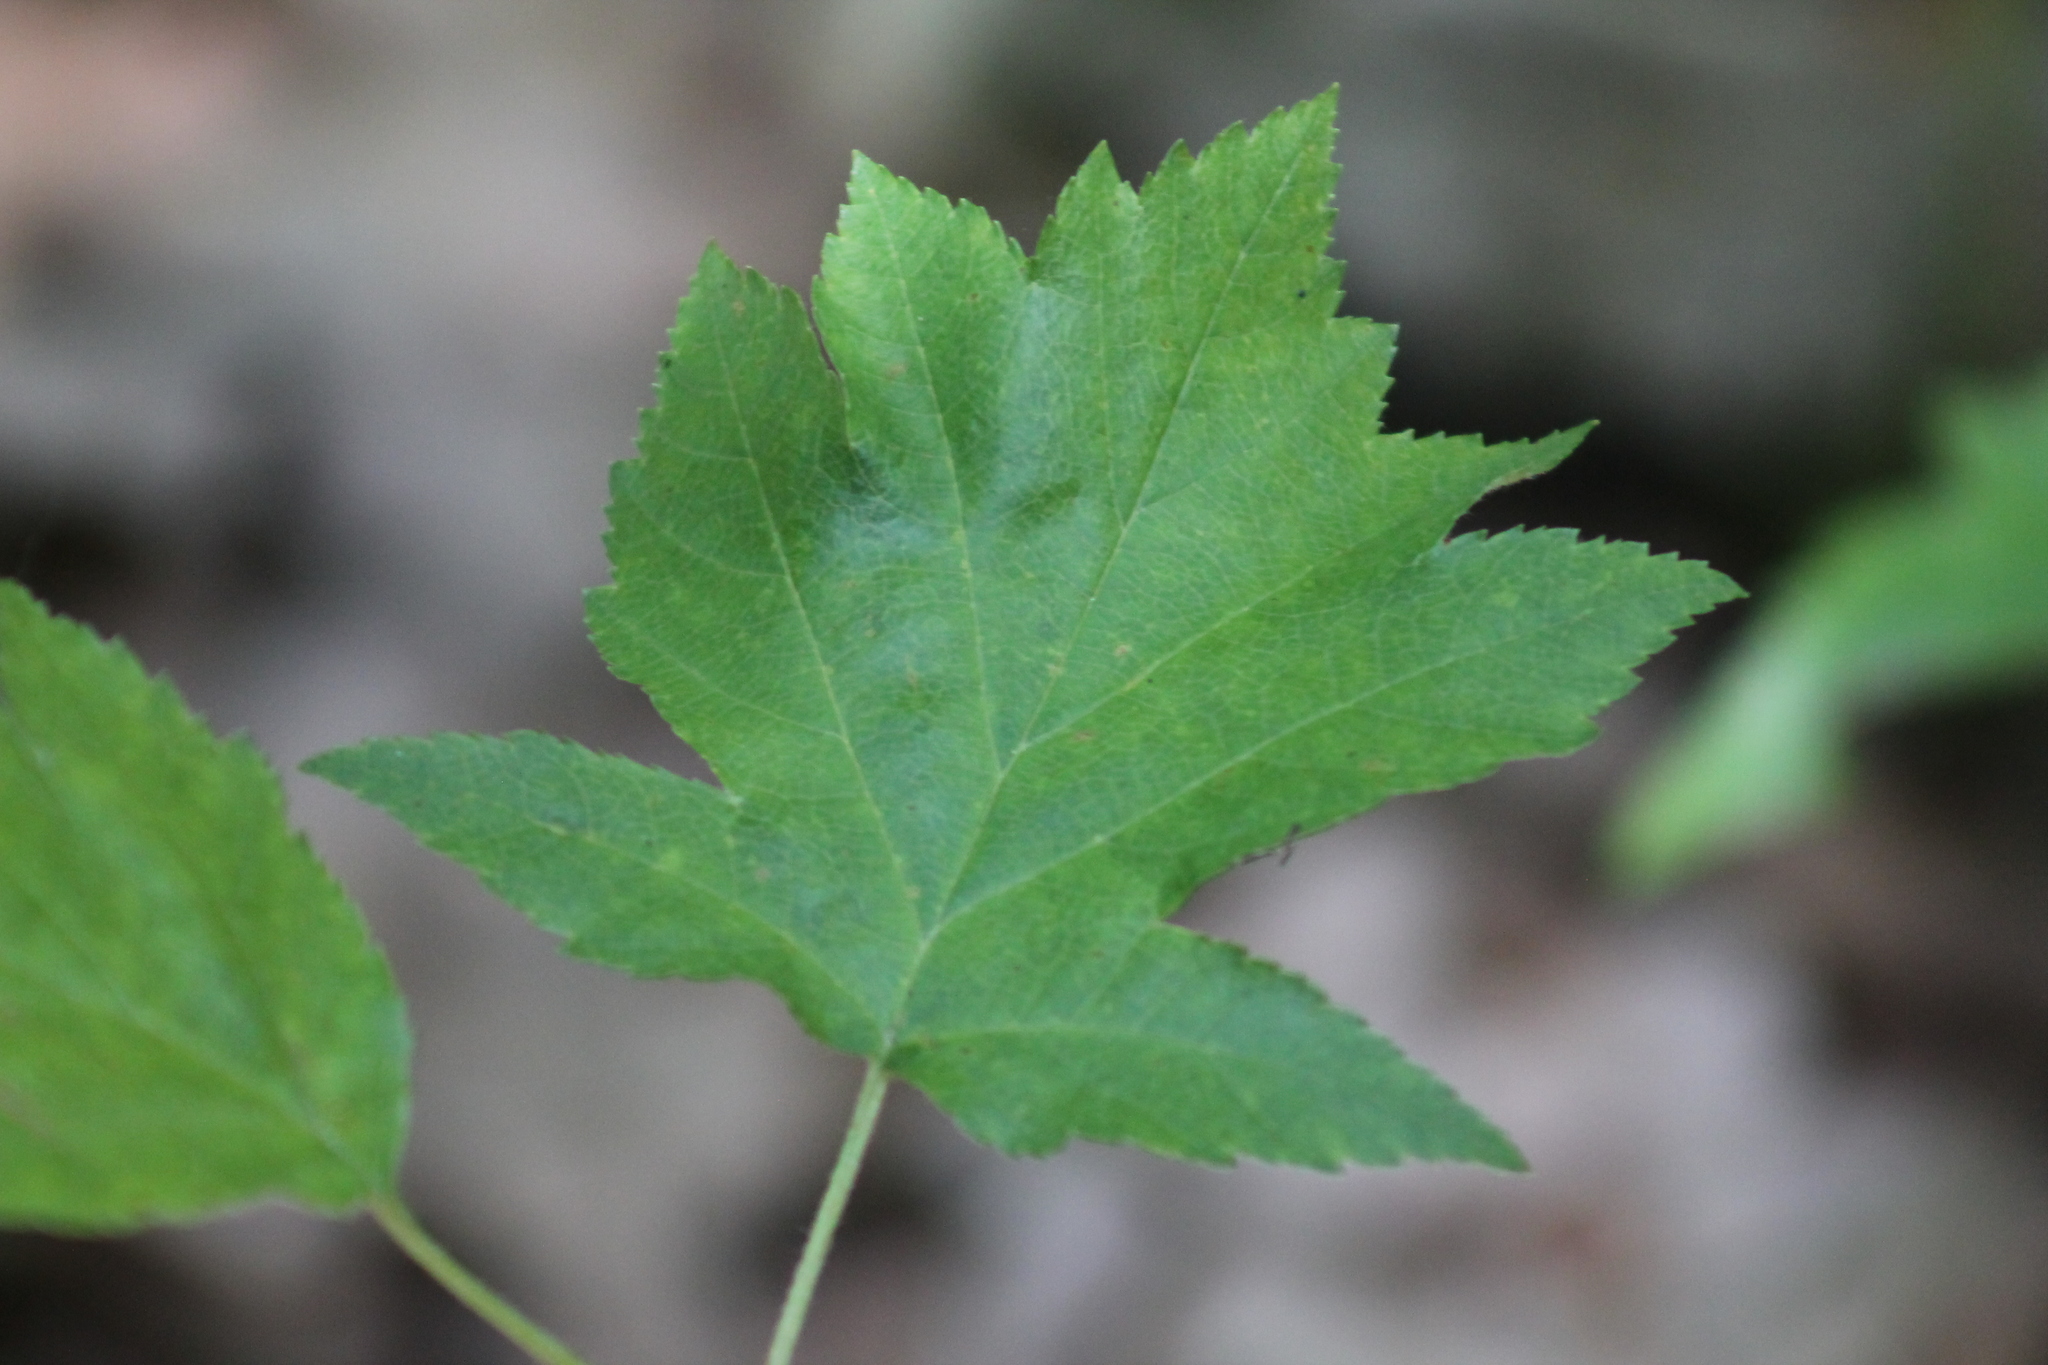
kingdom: Plantae
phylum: Tracheophyta
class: Magnoliopsida
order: Rosales
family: Rosaceae
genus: Torminalis
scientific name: Torminalis glaberrima
